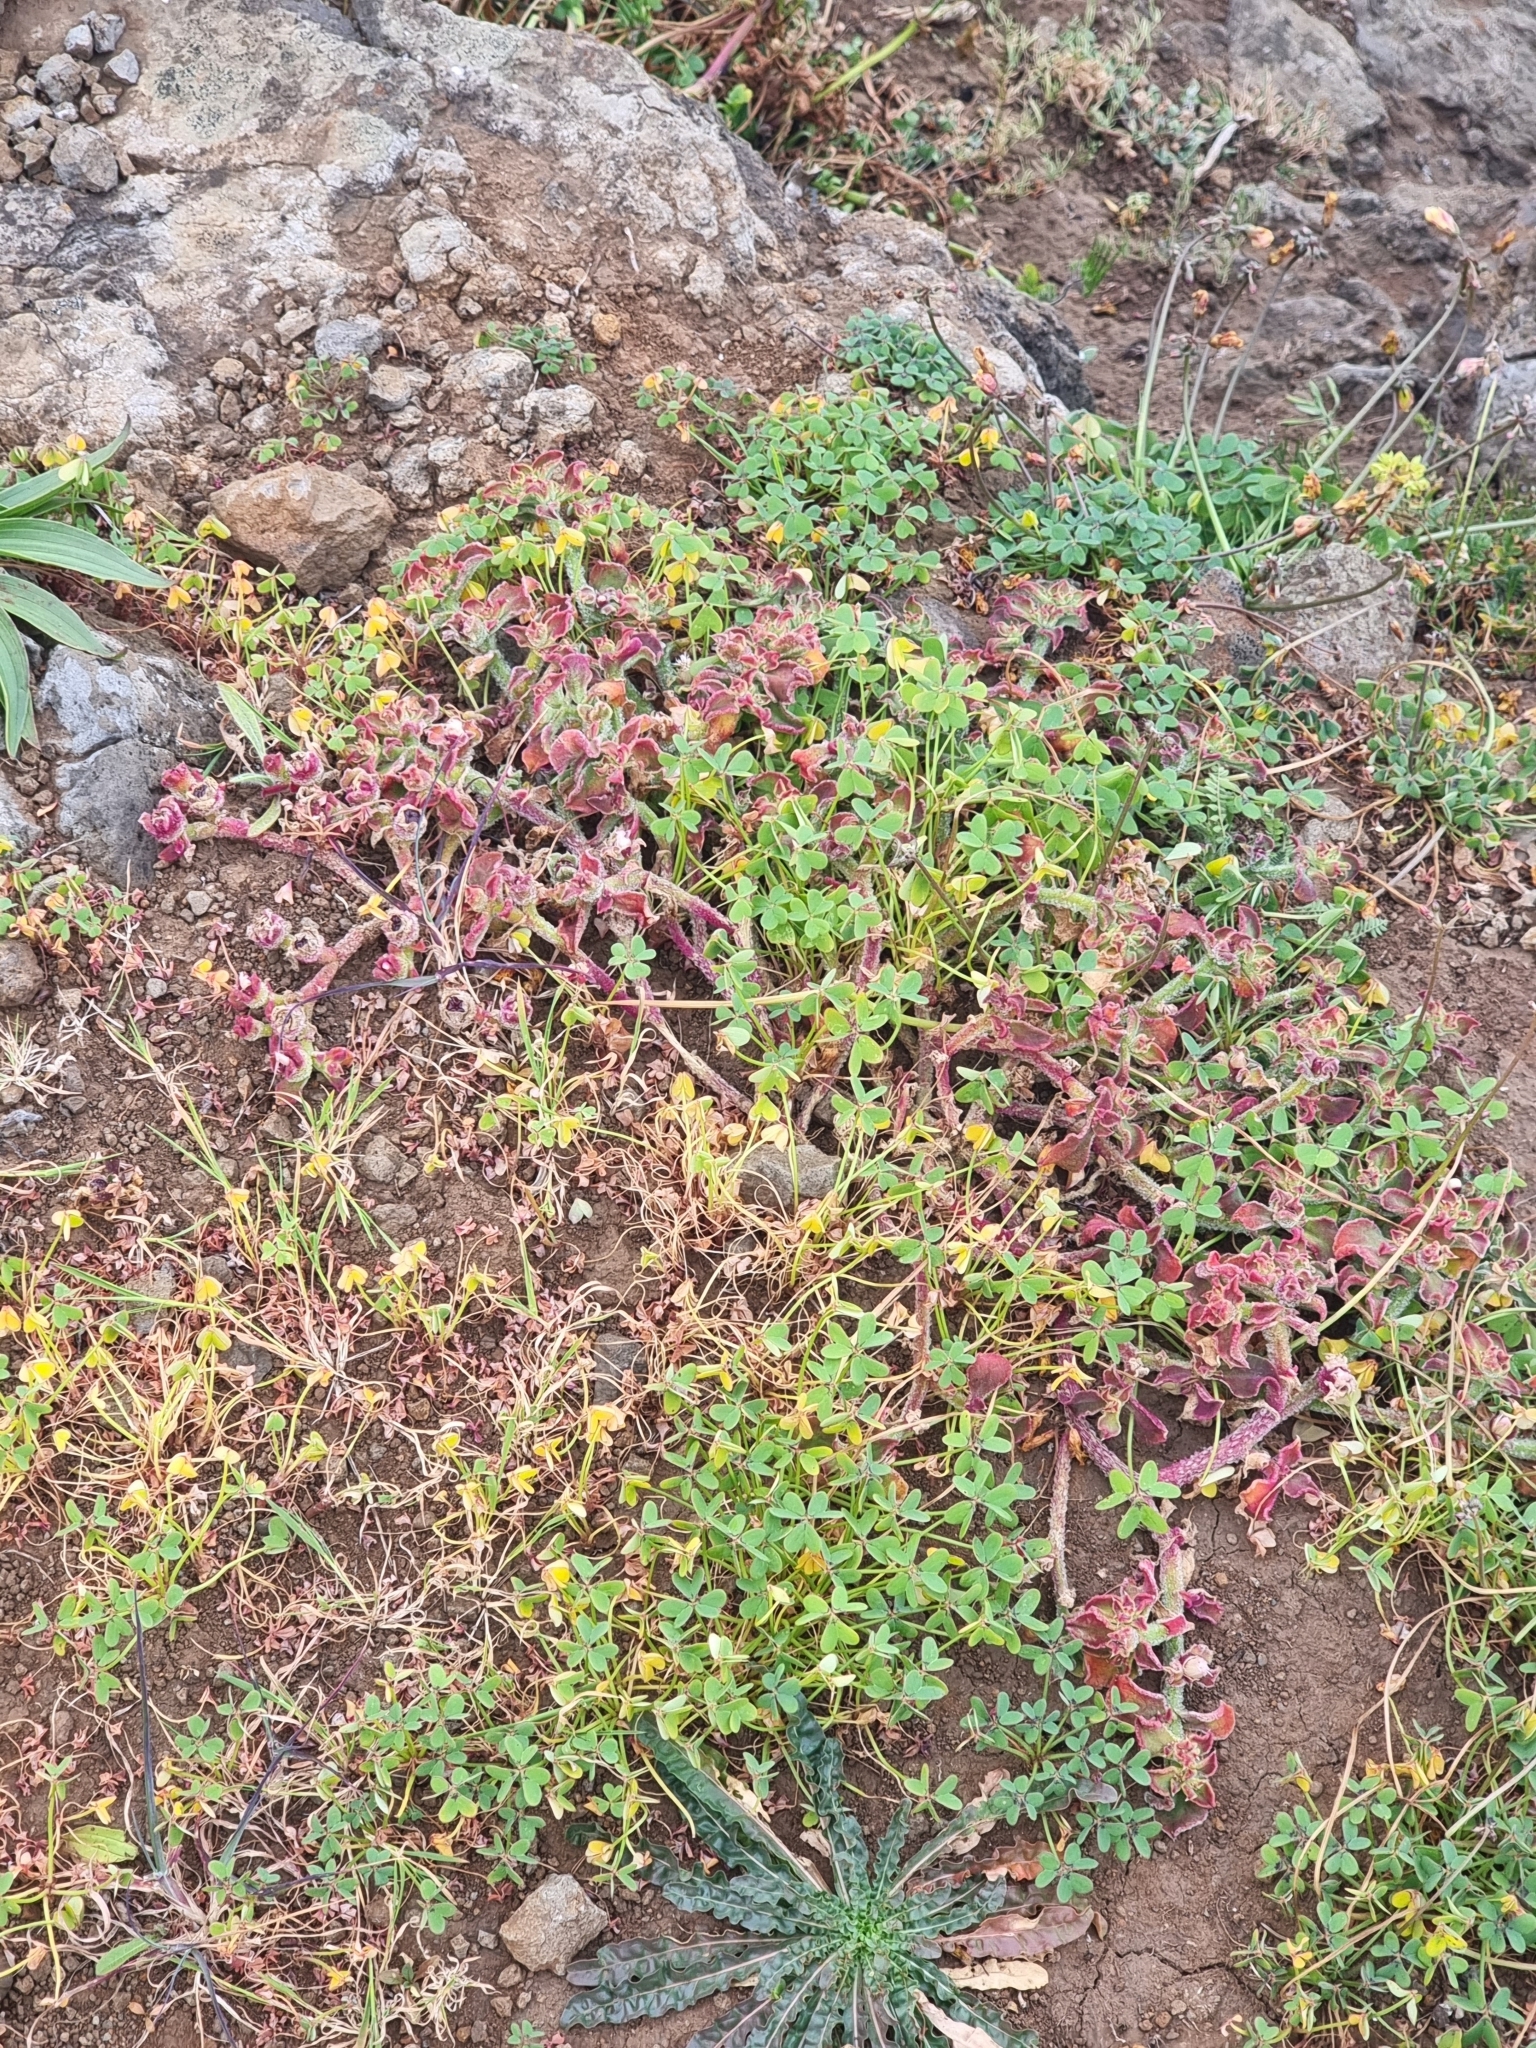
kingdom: Plantae
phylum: Tracheophyta
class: Magnoliopsida
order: Caryophyllales
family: Aizoaceae
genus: Mesembryanthemum
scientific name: Mesembryanthemum crystallinum
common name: Common iceplant
